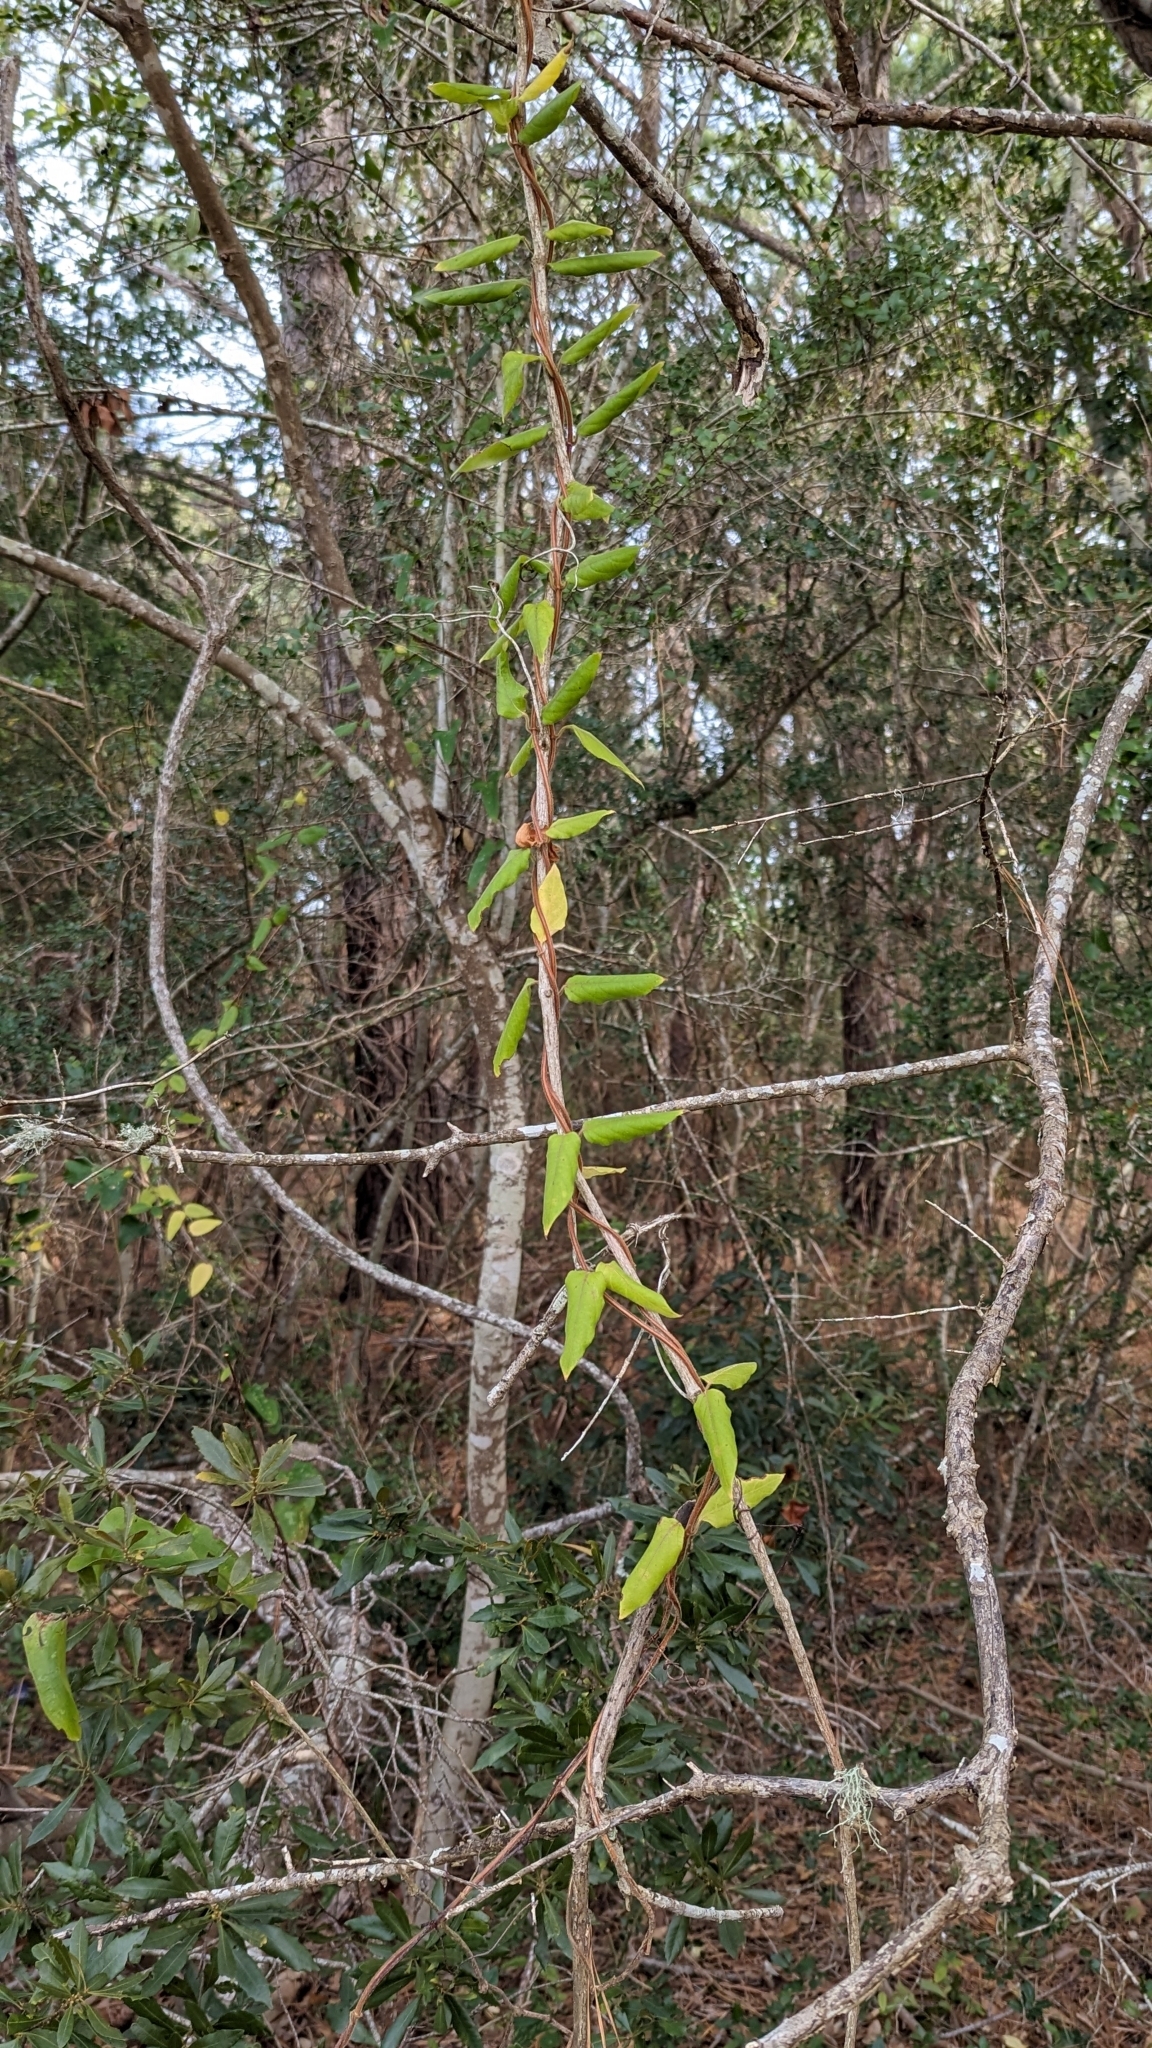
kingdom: Plantae
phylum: Tracheophyta
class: Magnoliopsida
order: Dipsacales
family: Caprifoliaceae
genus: Lonicera
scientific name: Lonicera japonica
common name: Japanese honeysuckle
